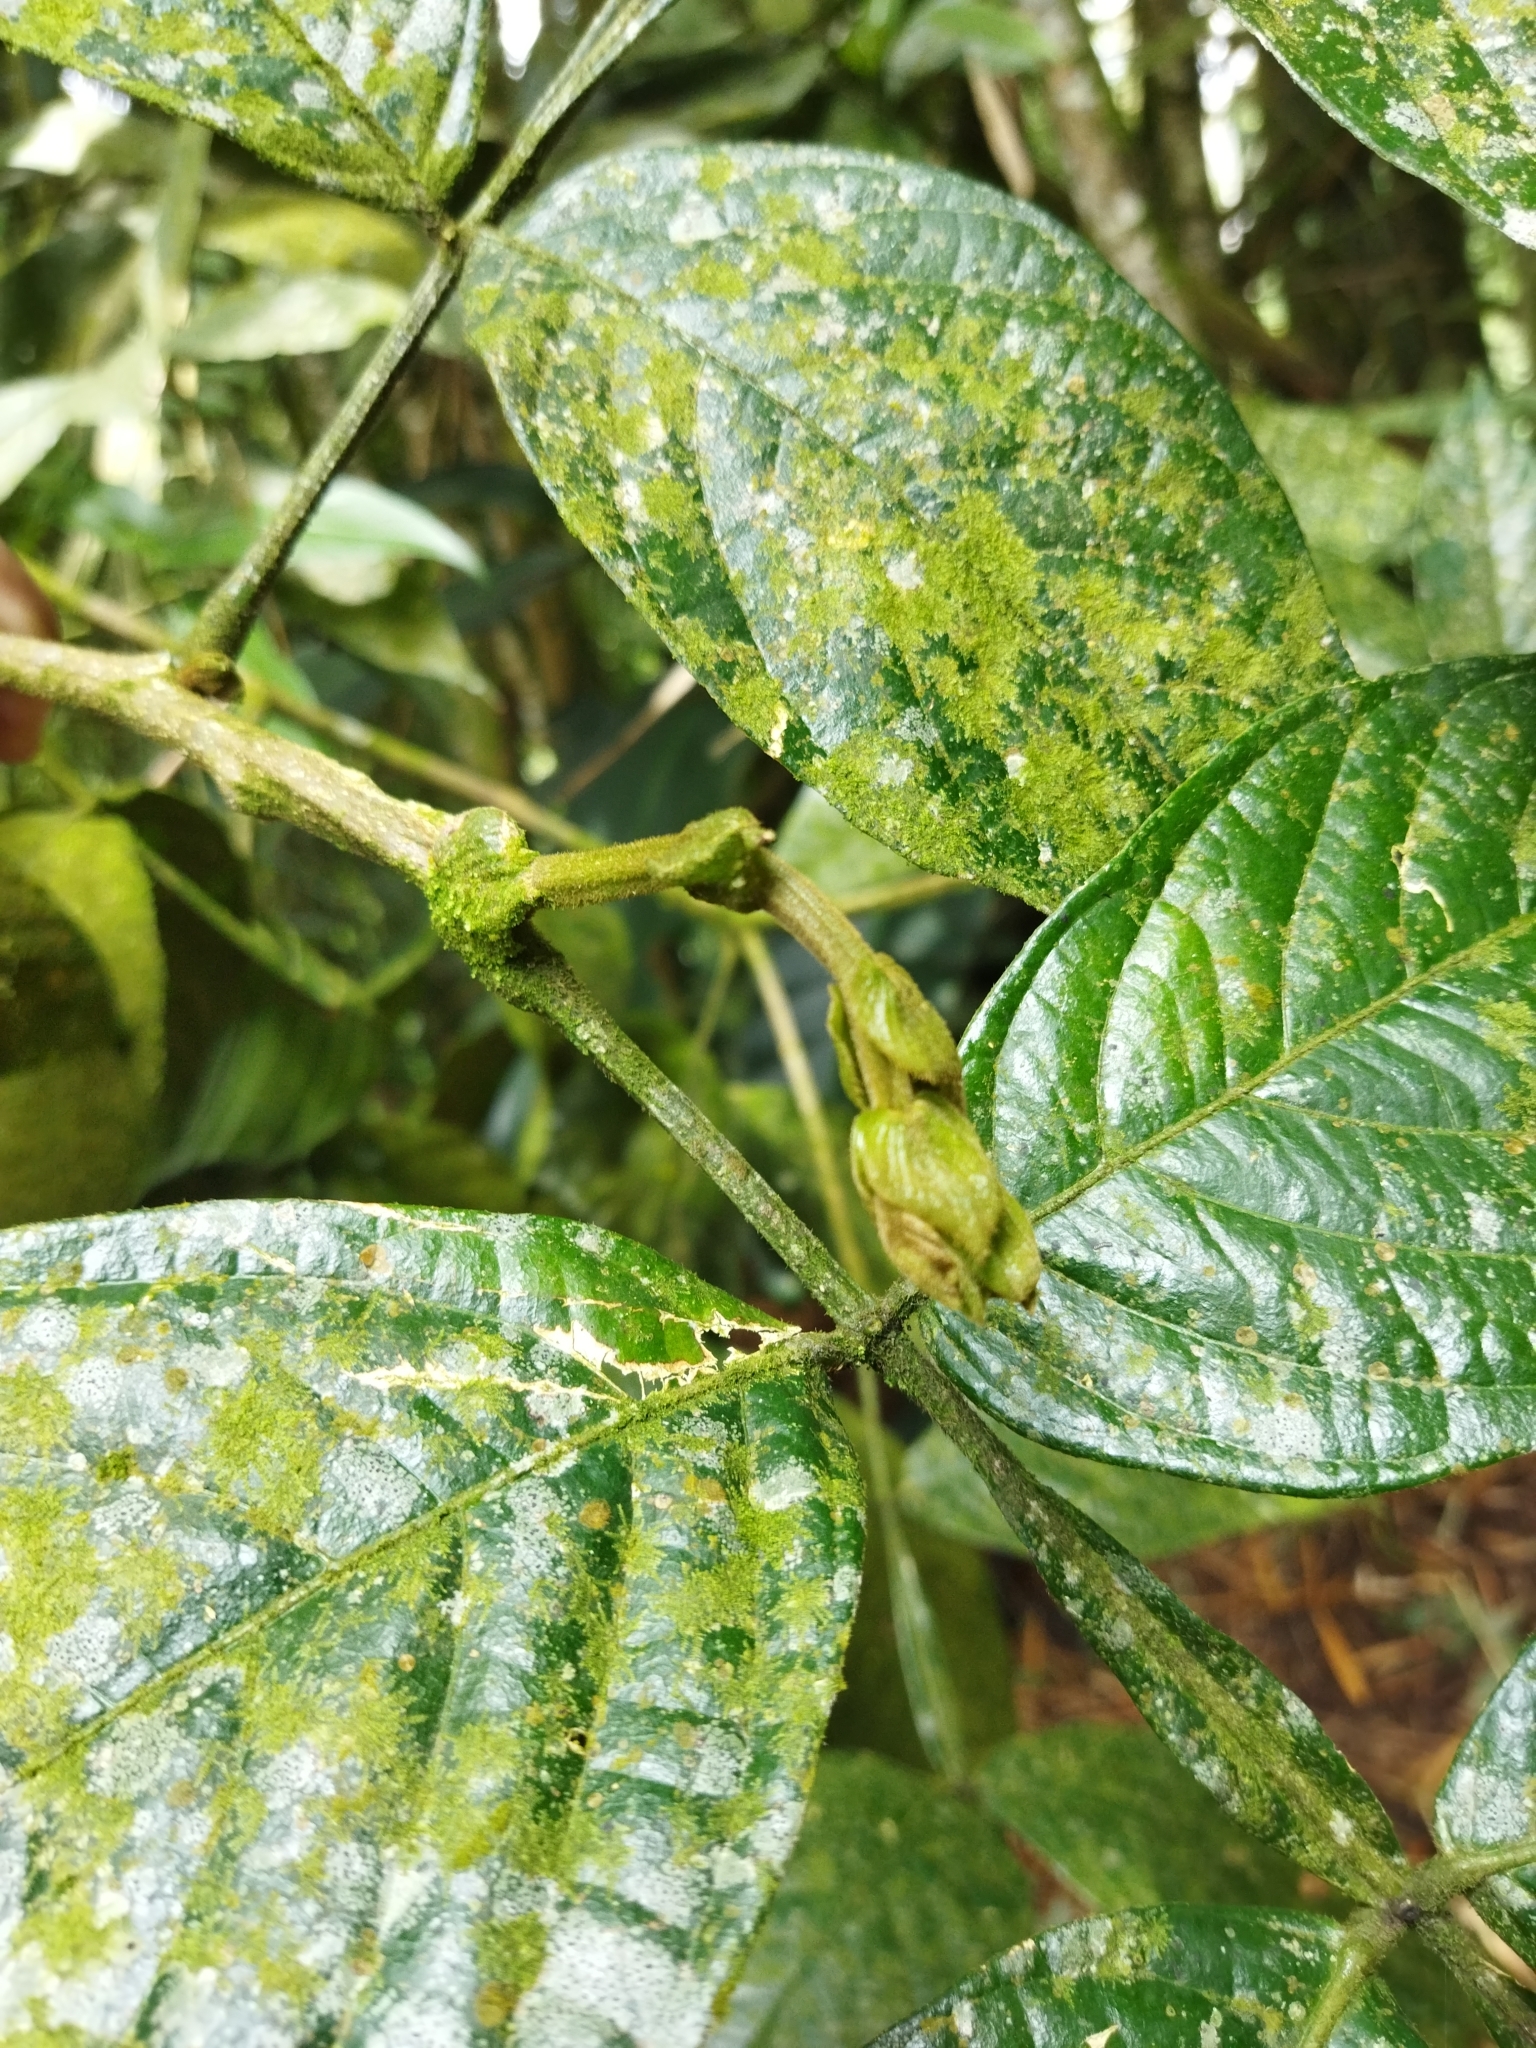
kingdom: Plantae
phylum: Tracheophyta
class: Magnoliopsida
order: Fabales
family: Fabaceae
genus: Inga
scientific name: Inga sapindoides
